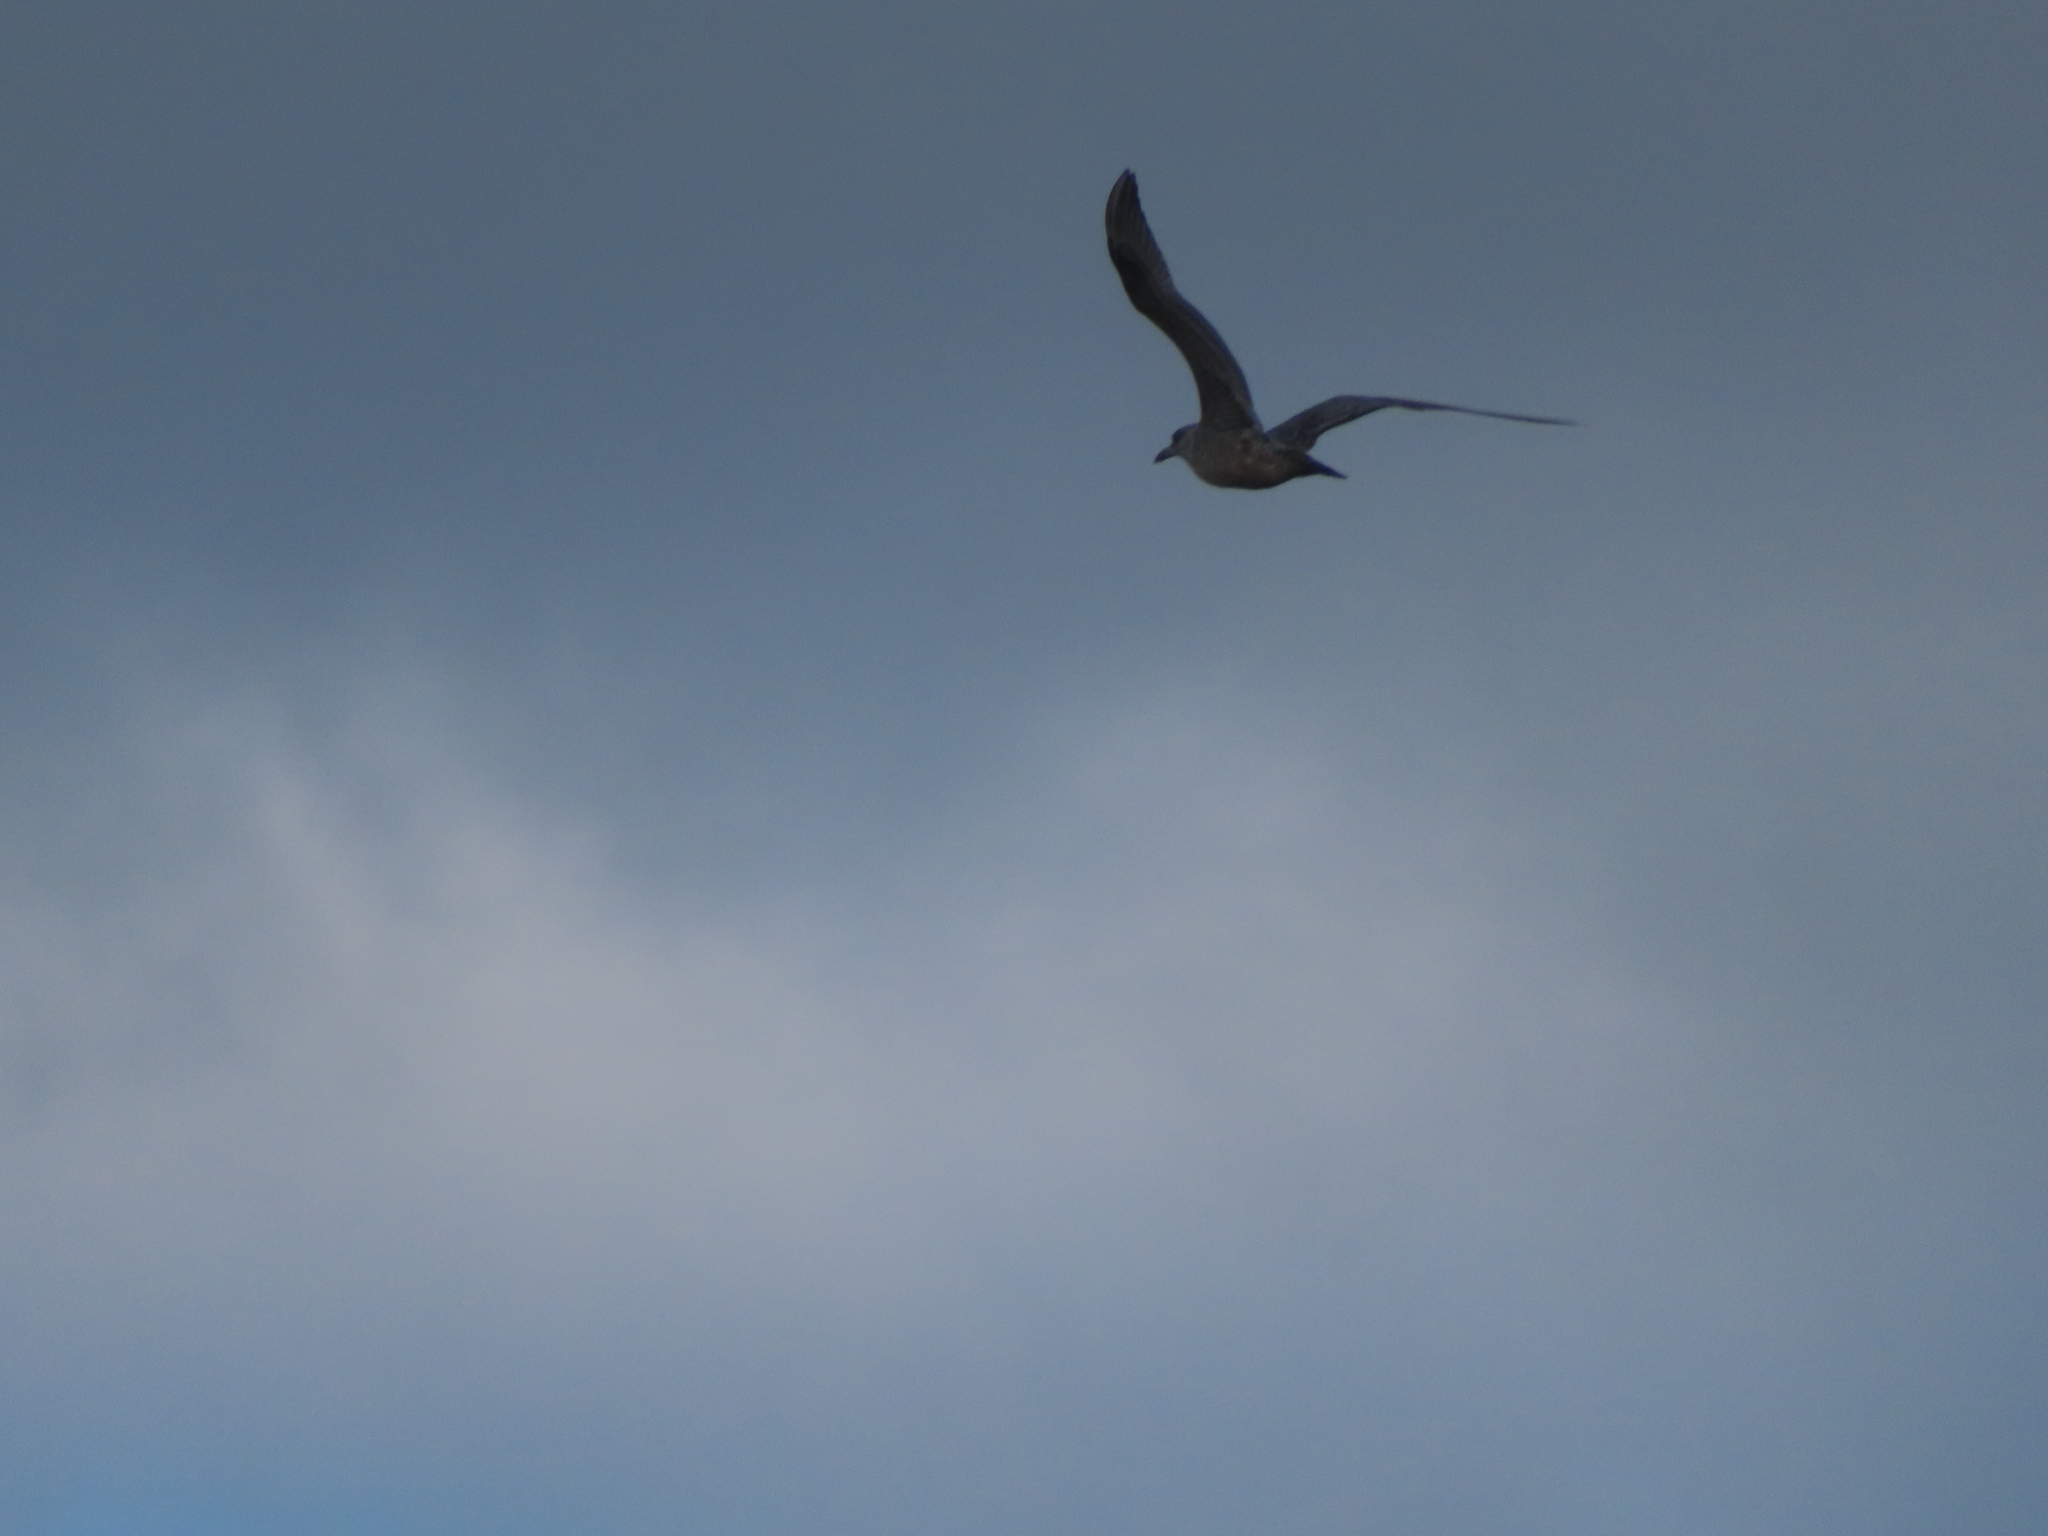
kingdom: Animalia
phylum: Chordata
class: Aves
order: Charadriiformes
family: Laridae
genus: Larus
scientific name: Larus argentatus
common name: Herring gull
